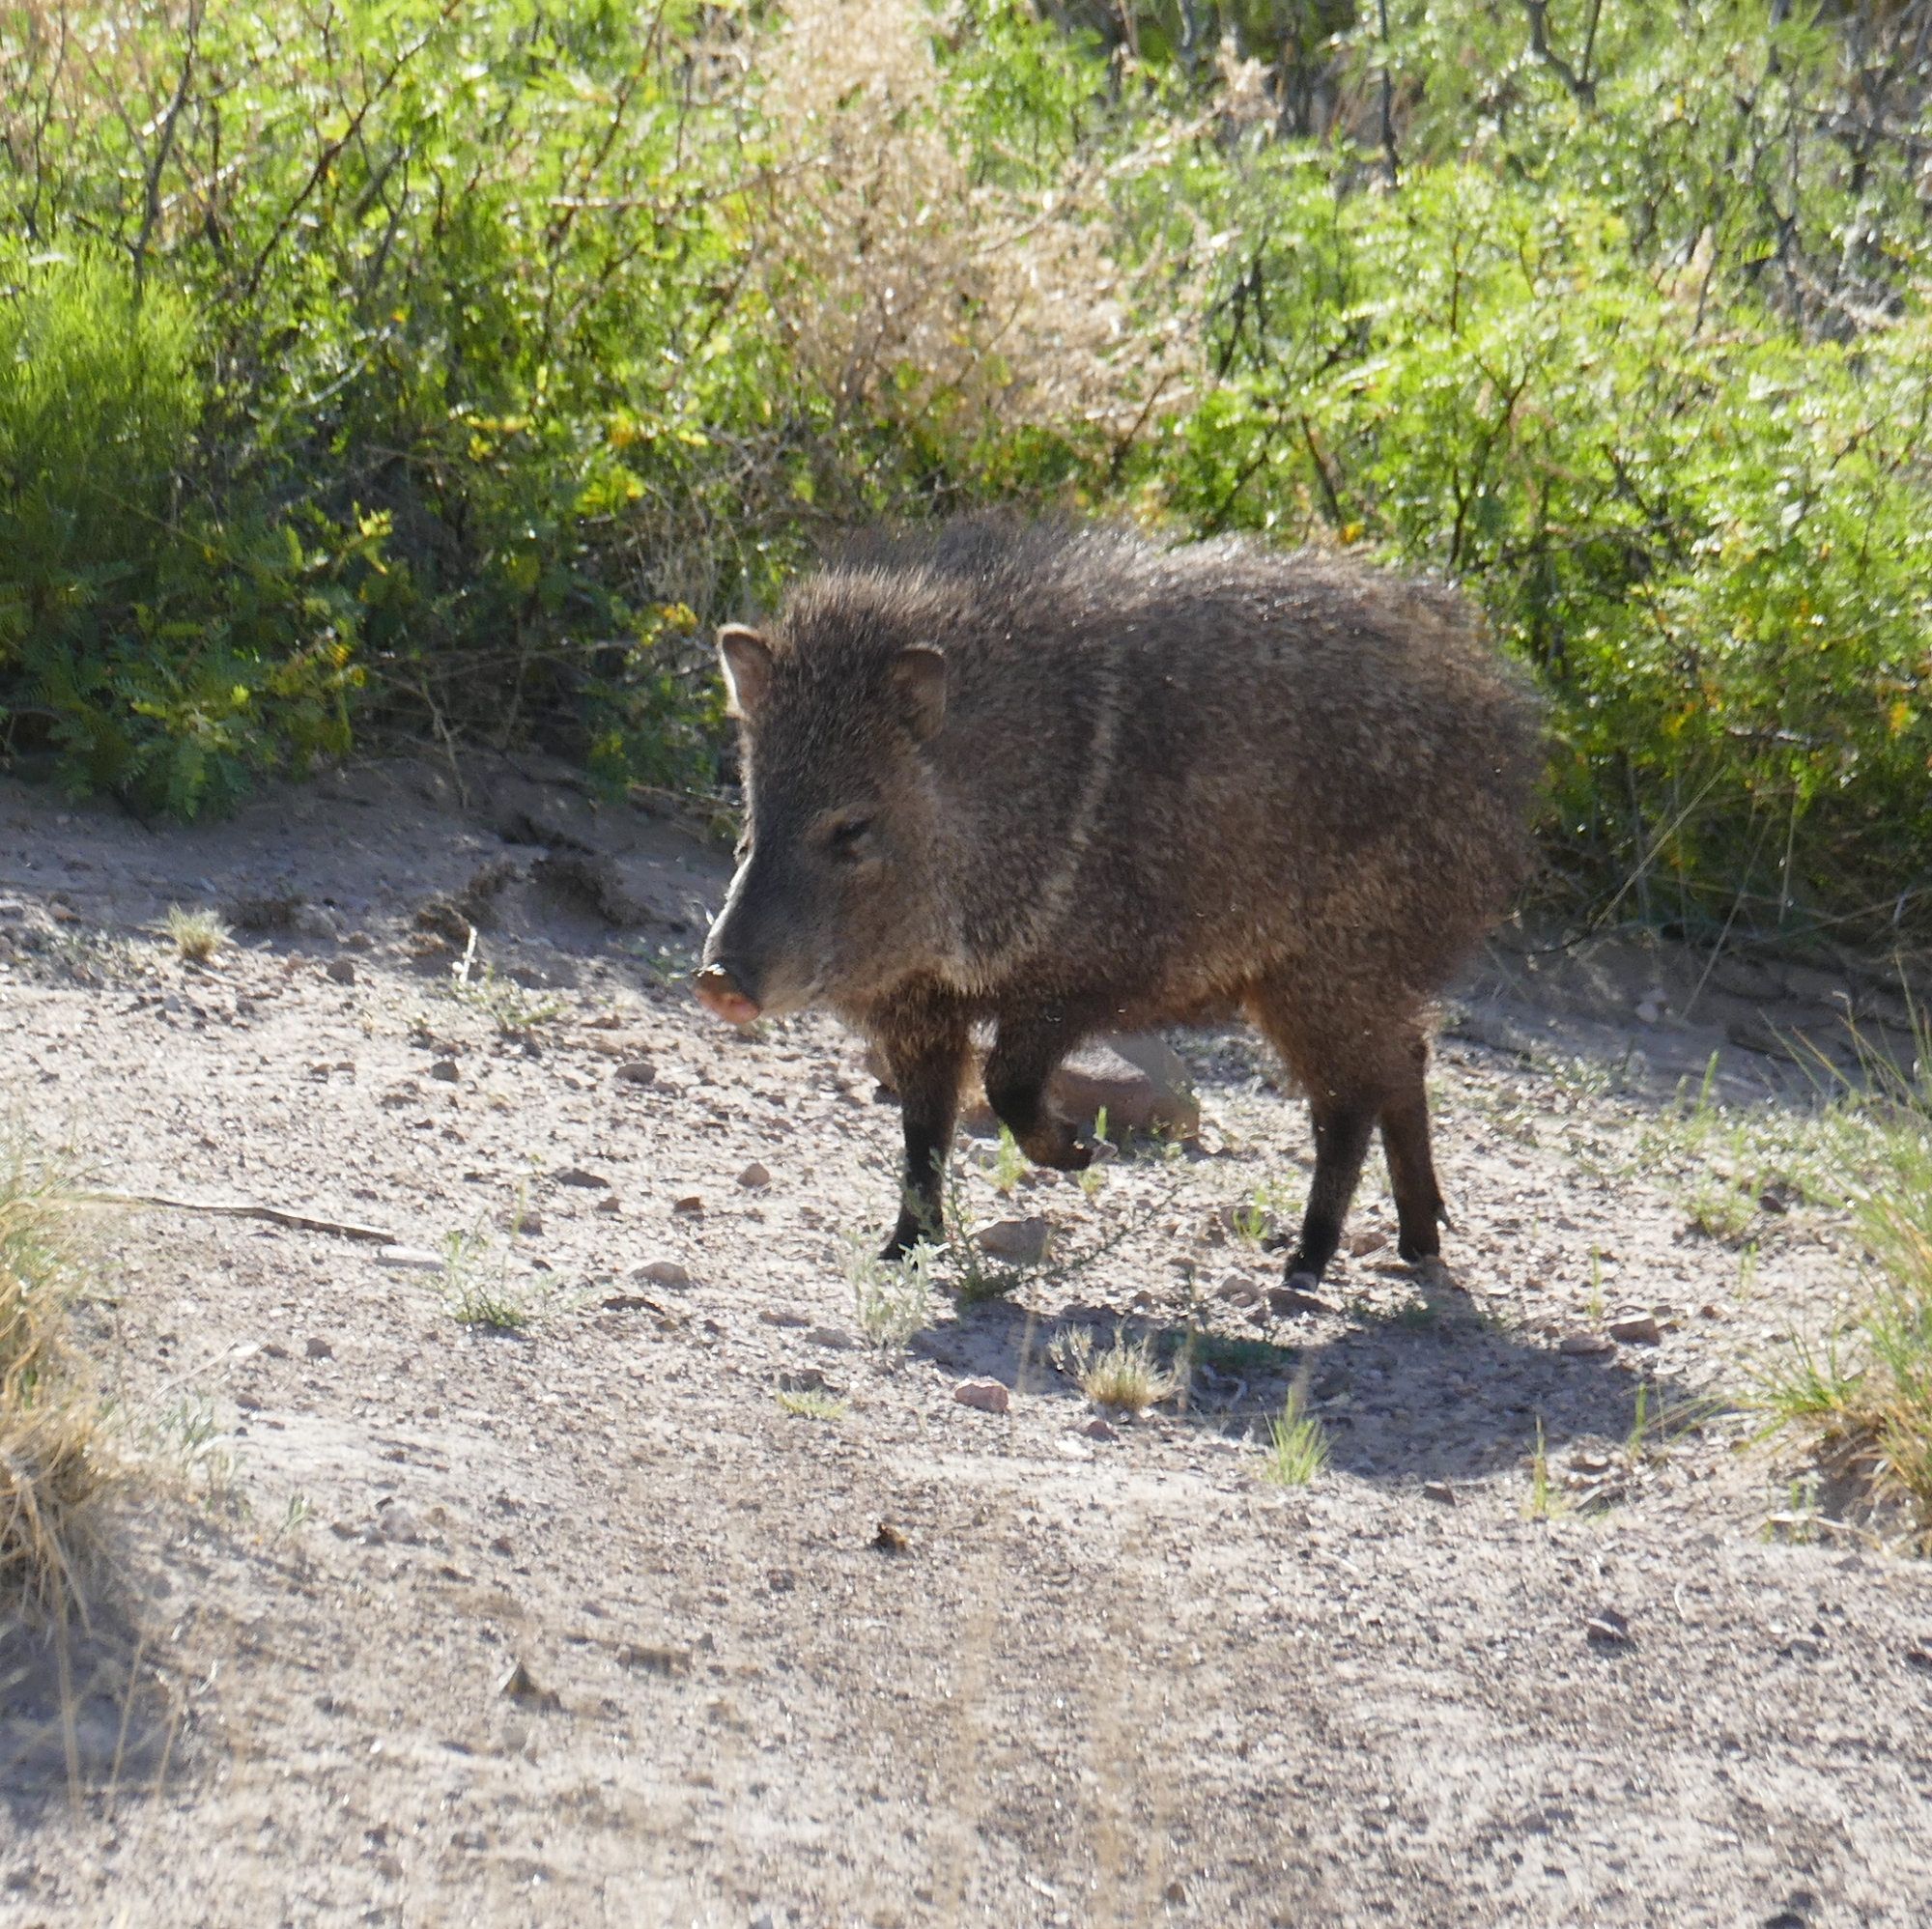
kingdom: Animalia
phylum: Chordata
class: Mammalia
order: Artiodactyla
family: Tayassuidae
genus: Pecari
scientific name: Pecari tajacu
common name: Collared peccary
